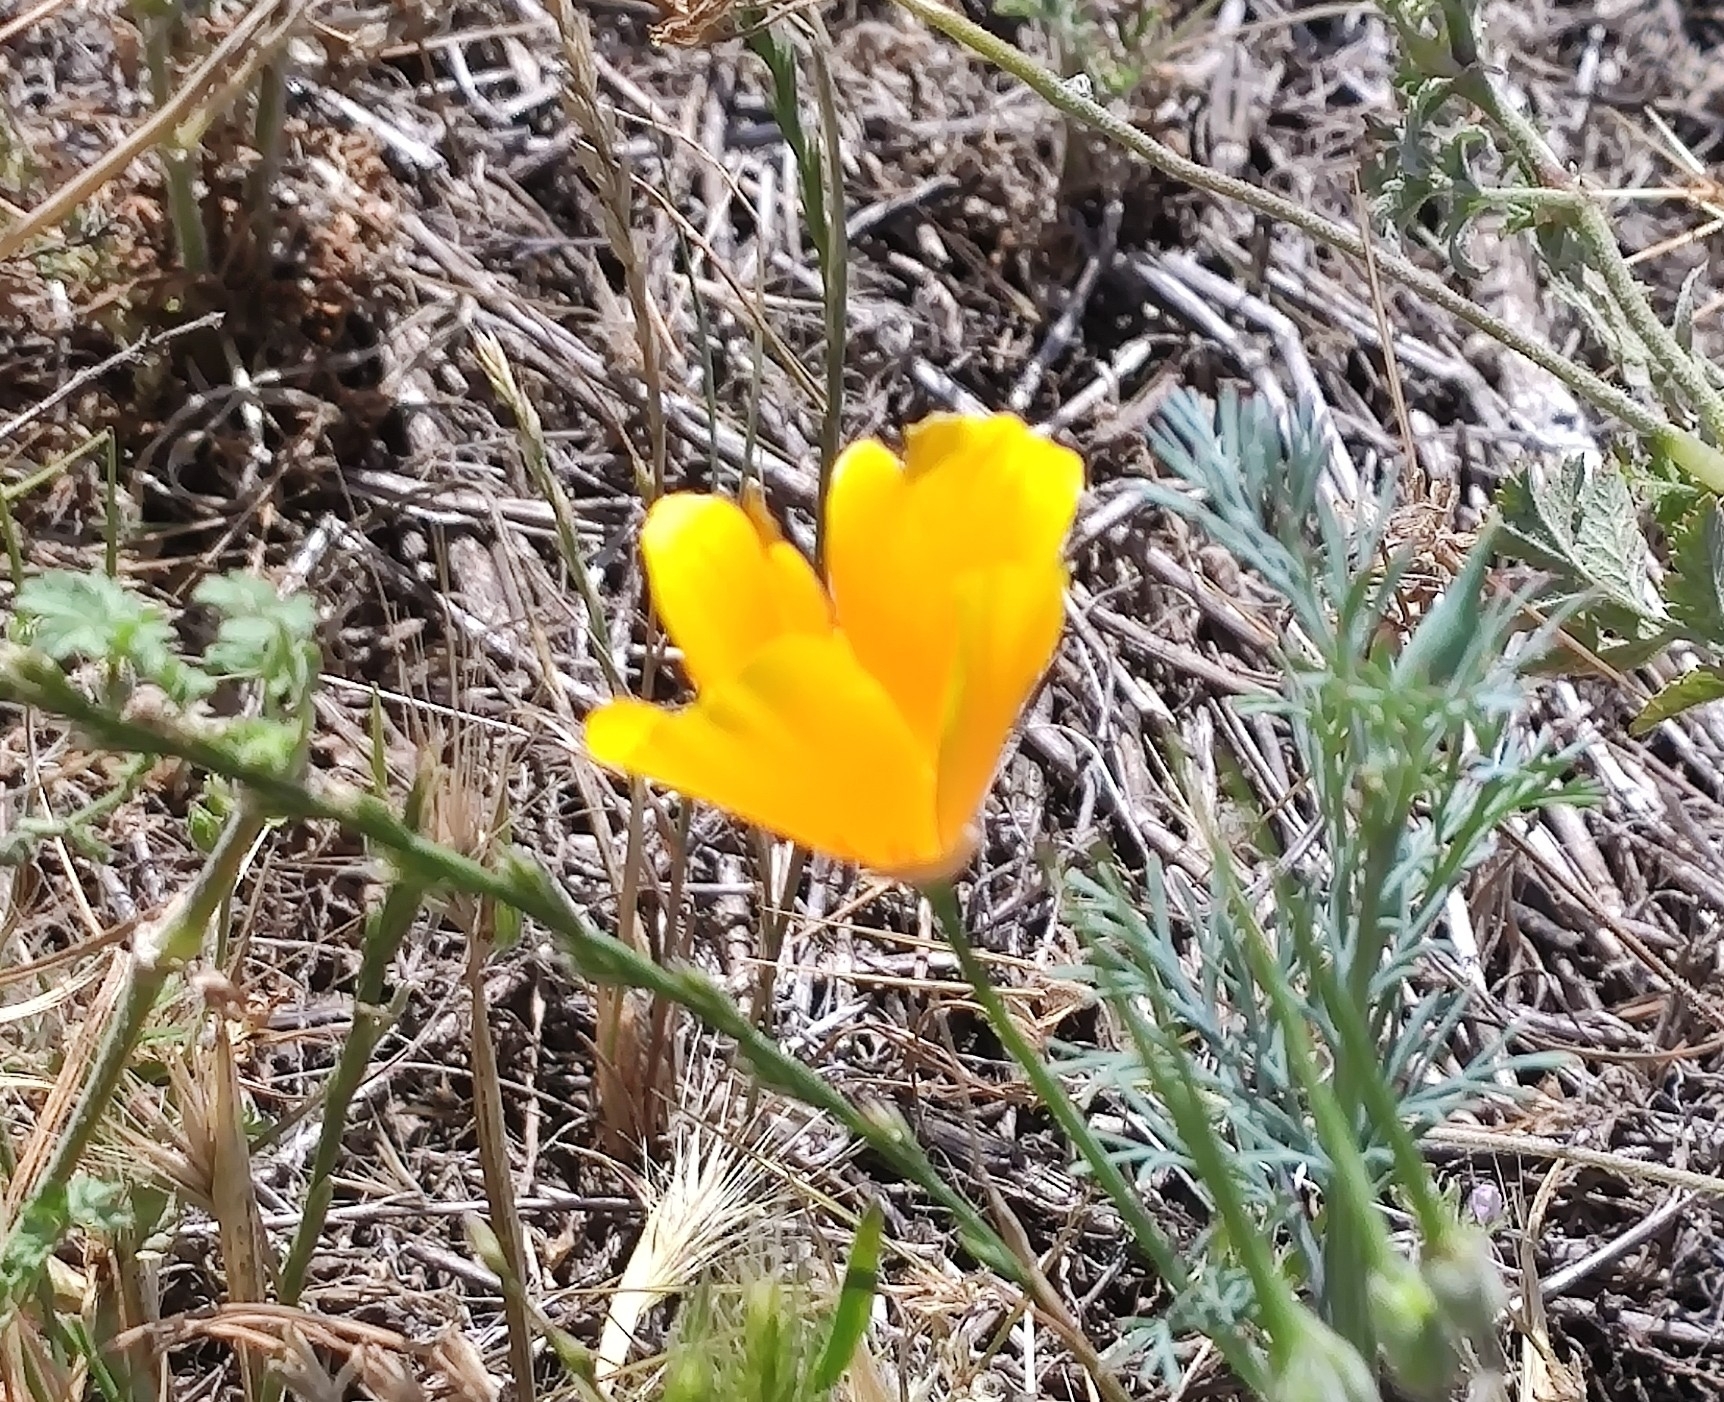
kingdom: Plantae
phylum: Tracheophyta
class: Magnoliopsida
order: Ranunculales
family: Papaveraceae
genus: Eschscholzia
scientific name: Eschscholzia californica
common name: California poppy
